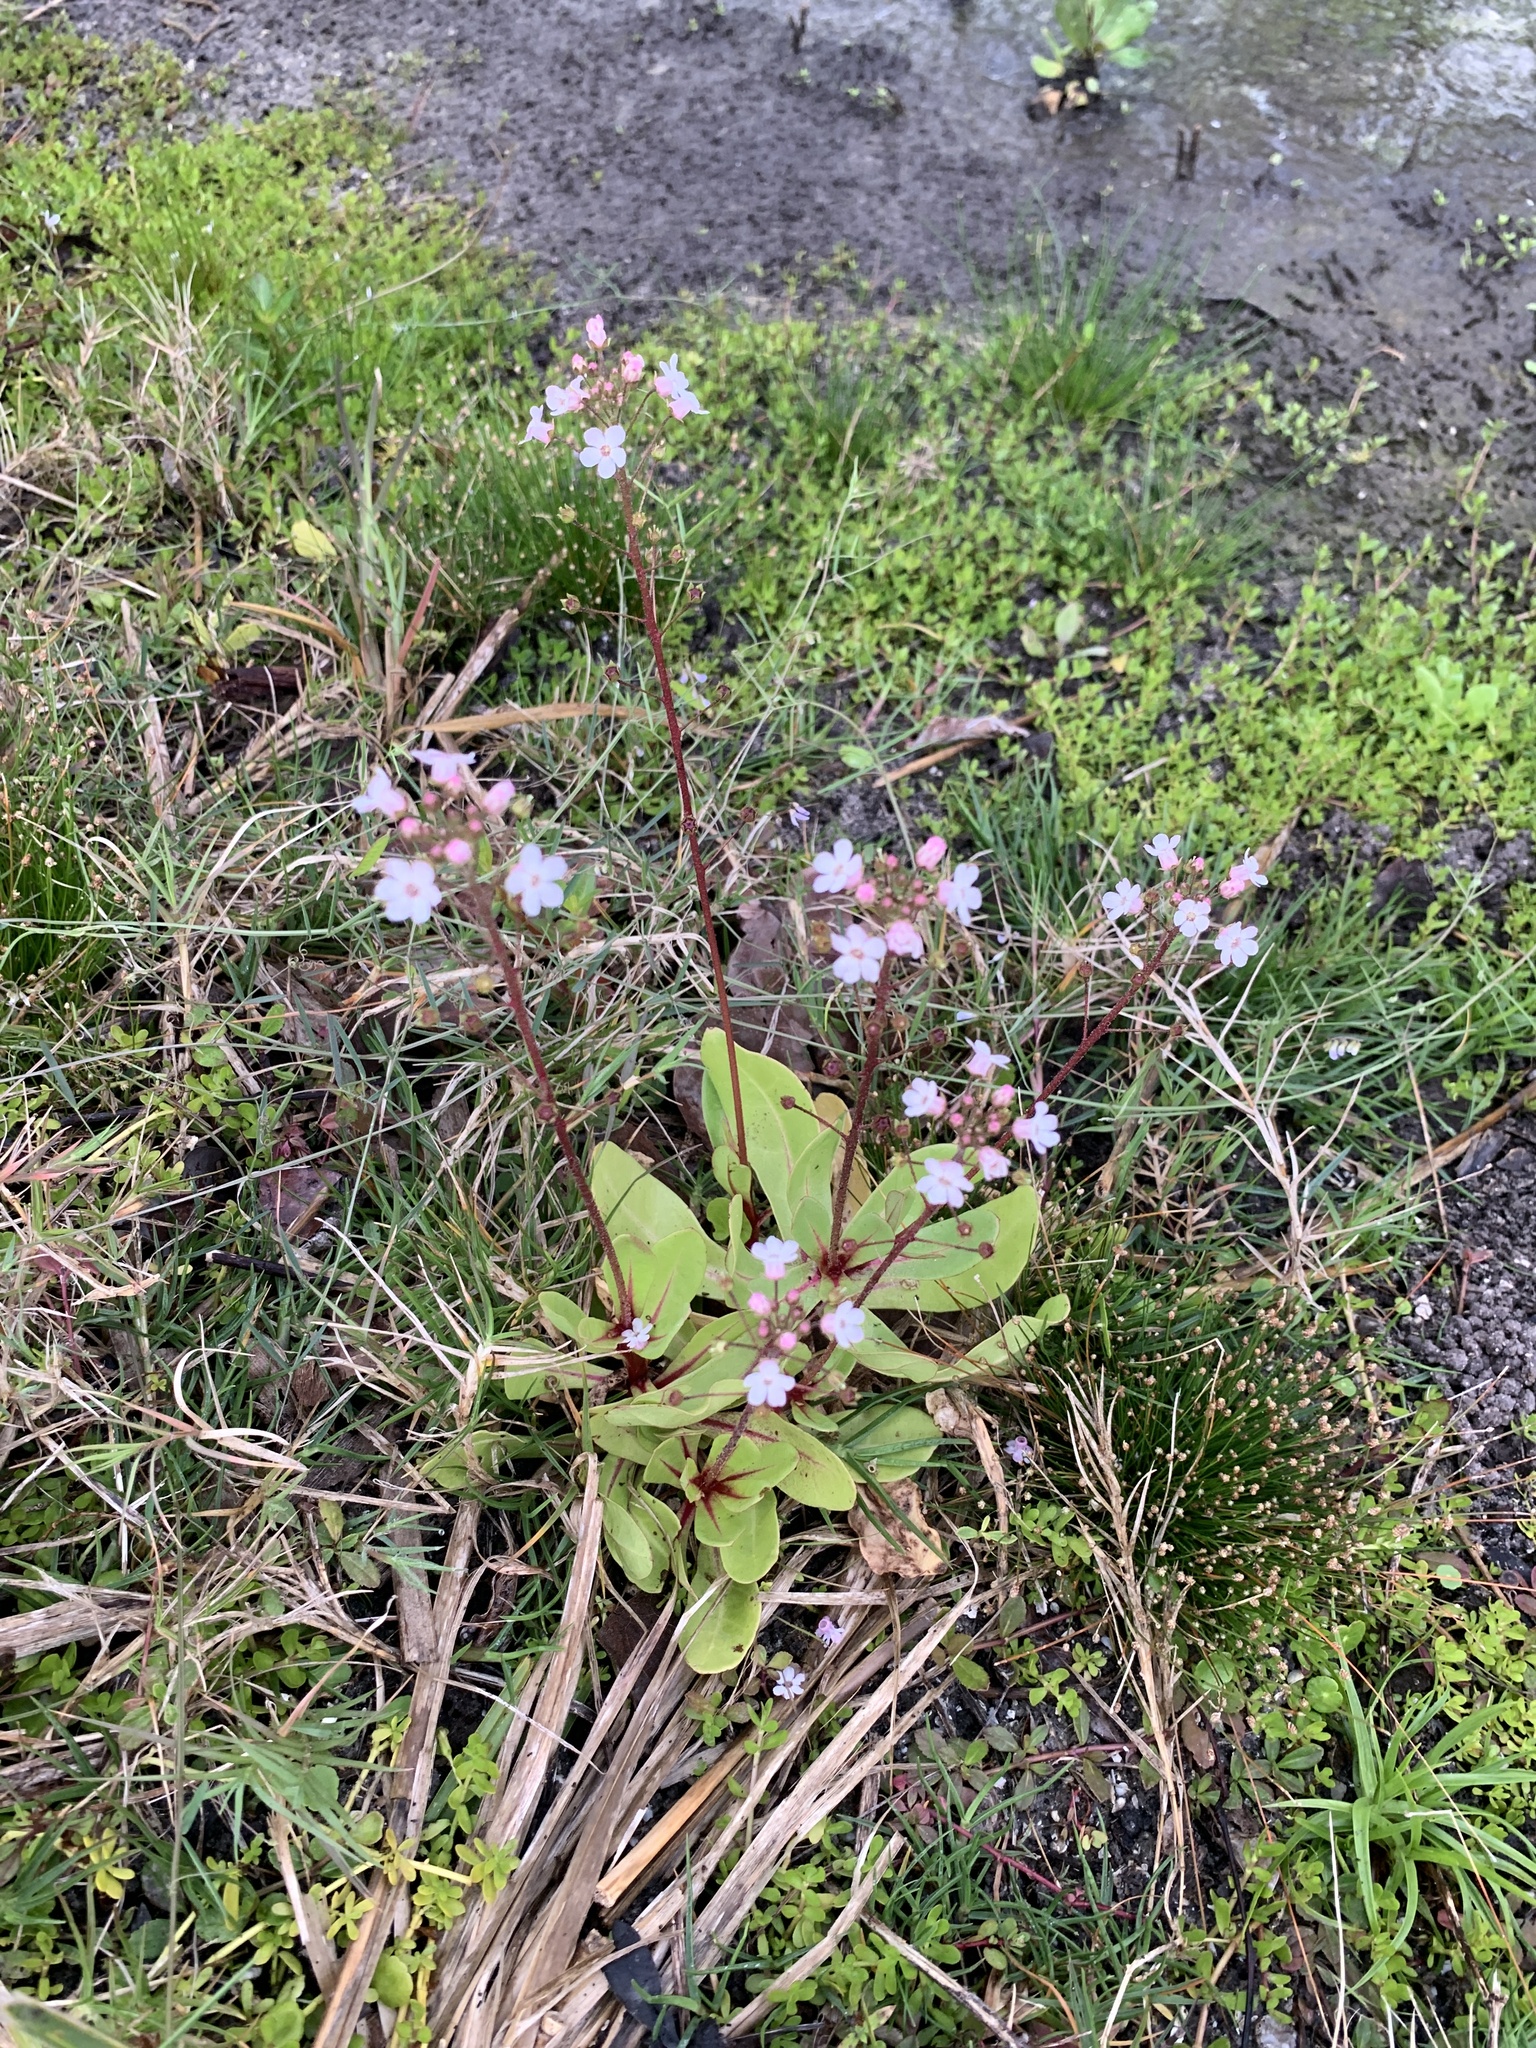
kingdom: Plantae
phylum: Tracheophyta
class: Magnoliopsida
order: Ericales
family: Primulaceae
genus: Samolus
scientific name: Samolus ebracteatus
